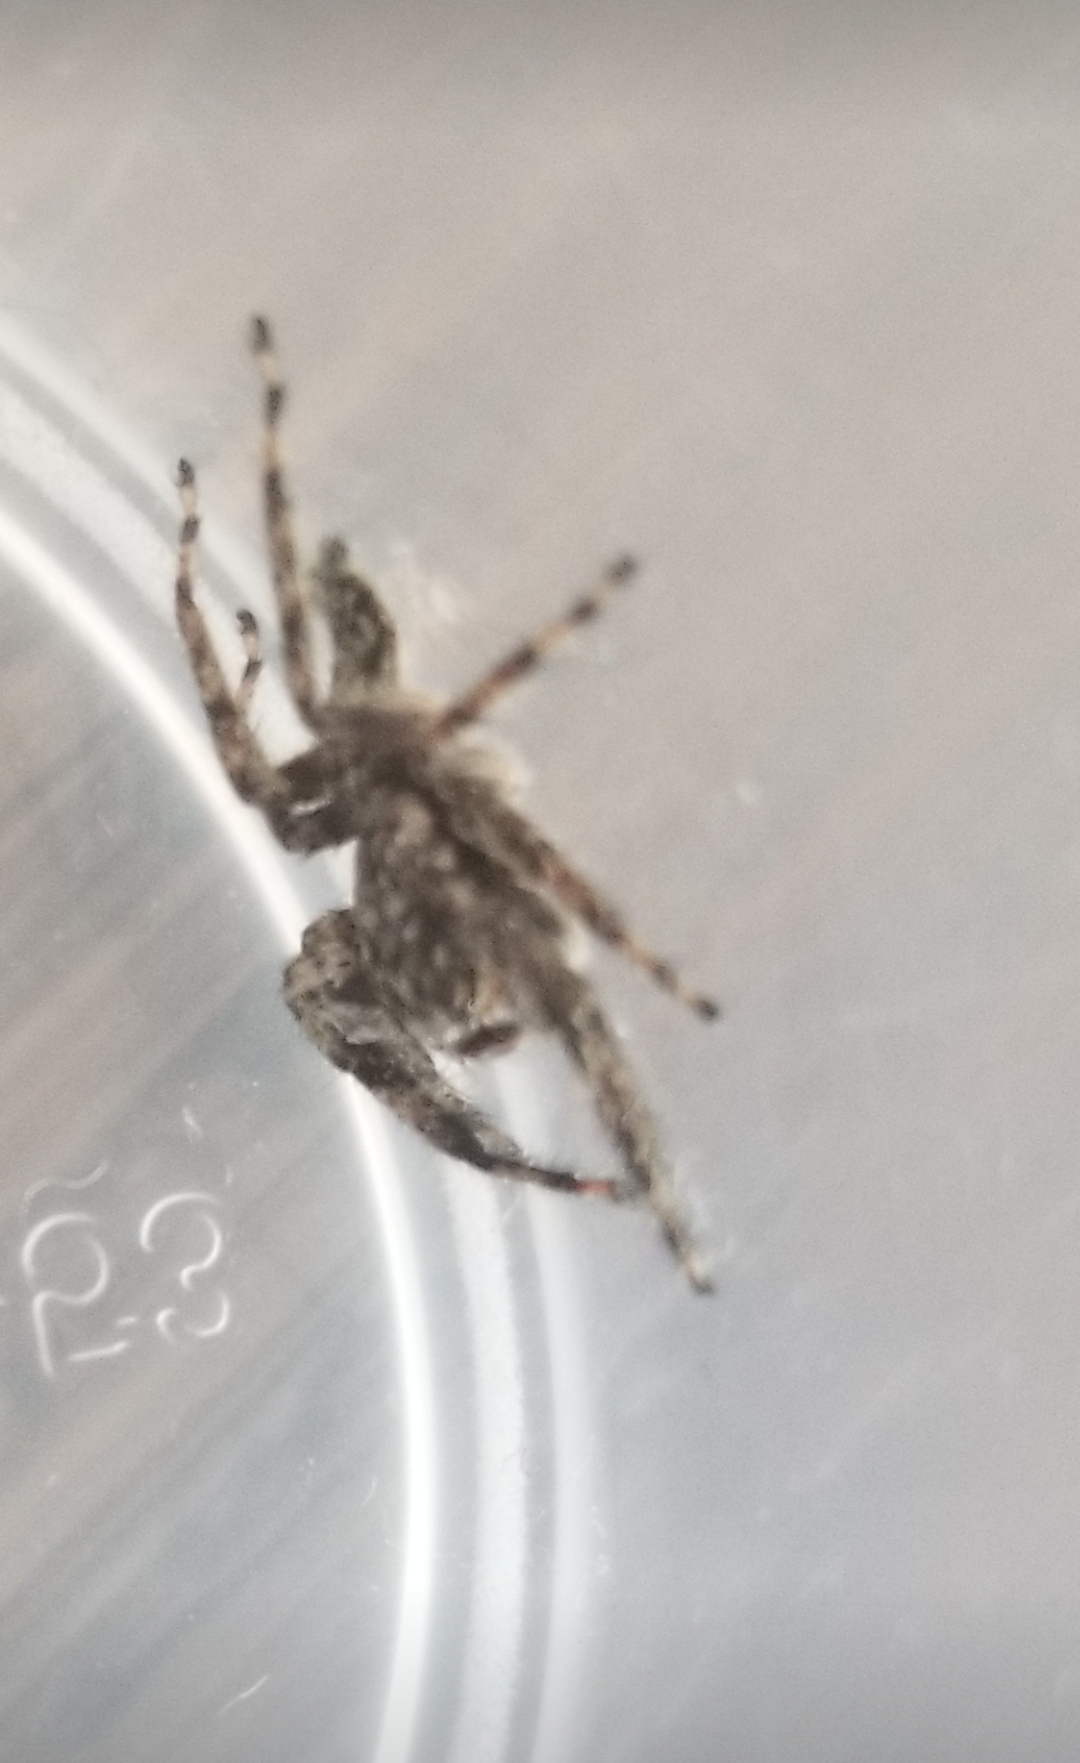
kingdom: Animalia
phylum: Arthropoda
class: Arachnida
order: Araneae
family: Salticidae
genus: Platycryptus
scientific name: Platycryptus undatus
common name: Tan jumping spider
